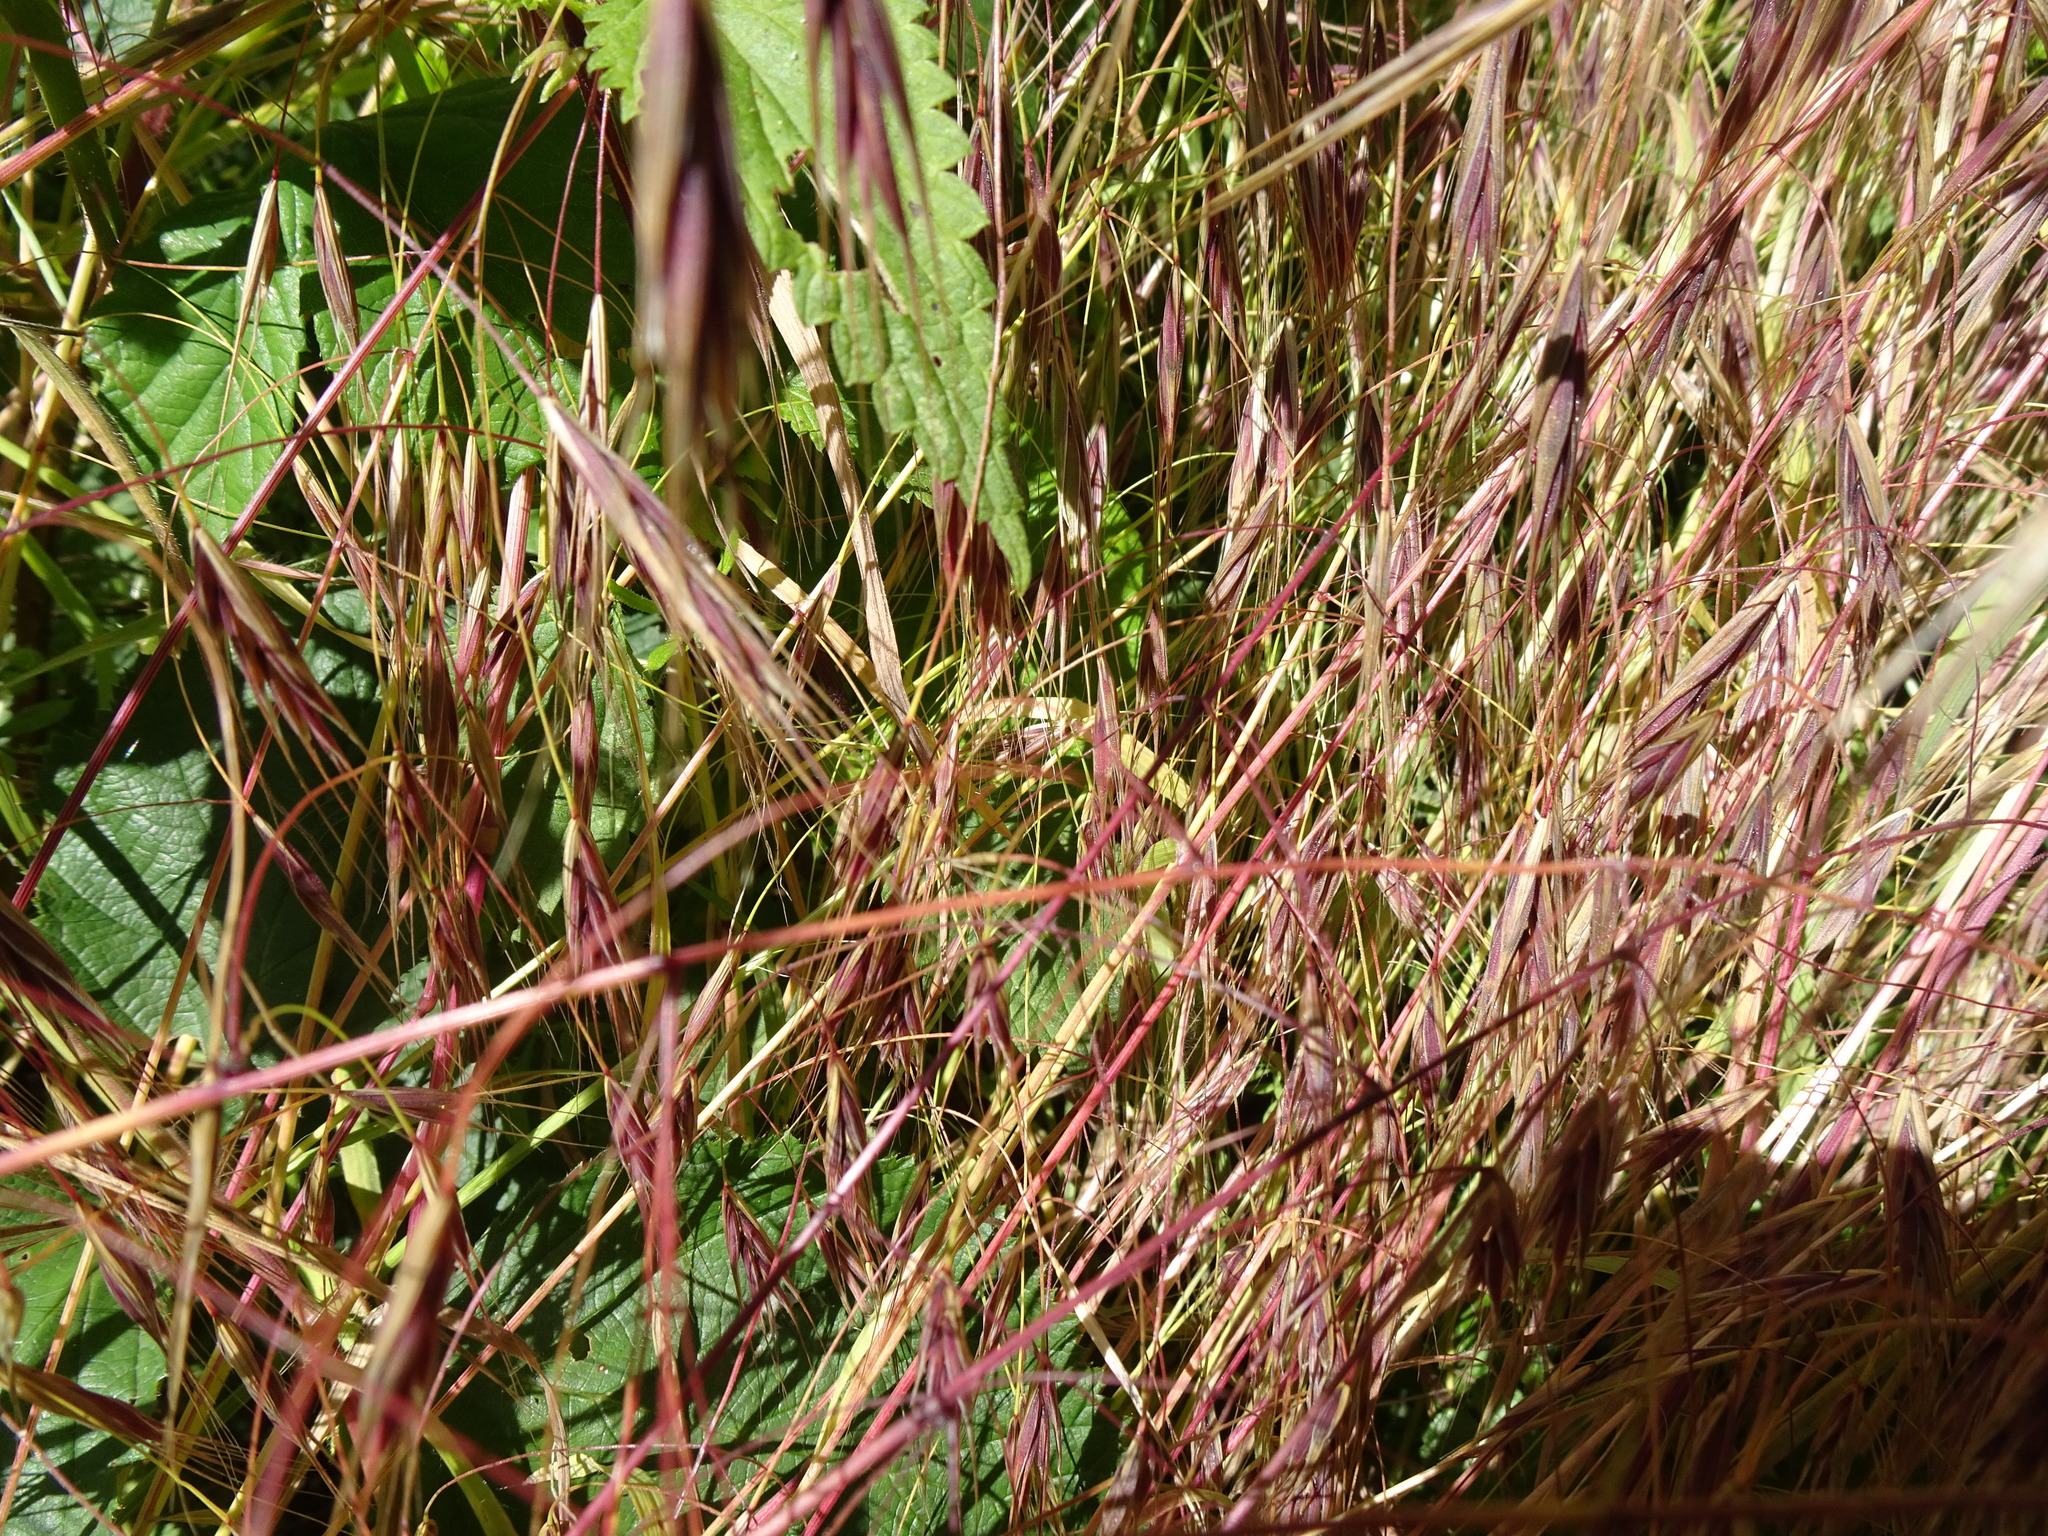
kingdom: Plantae
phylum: Tracheophyta
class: Liliopsida
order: Poales
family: Poaceae
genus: Bromus
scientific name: Bromus sterilis
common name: Poverty brome
